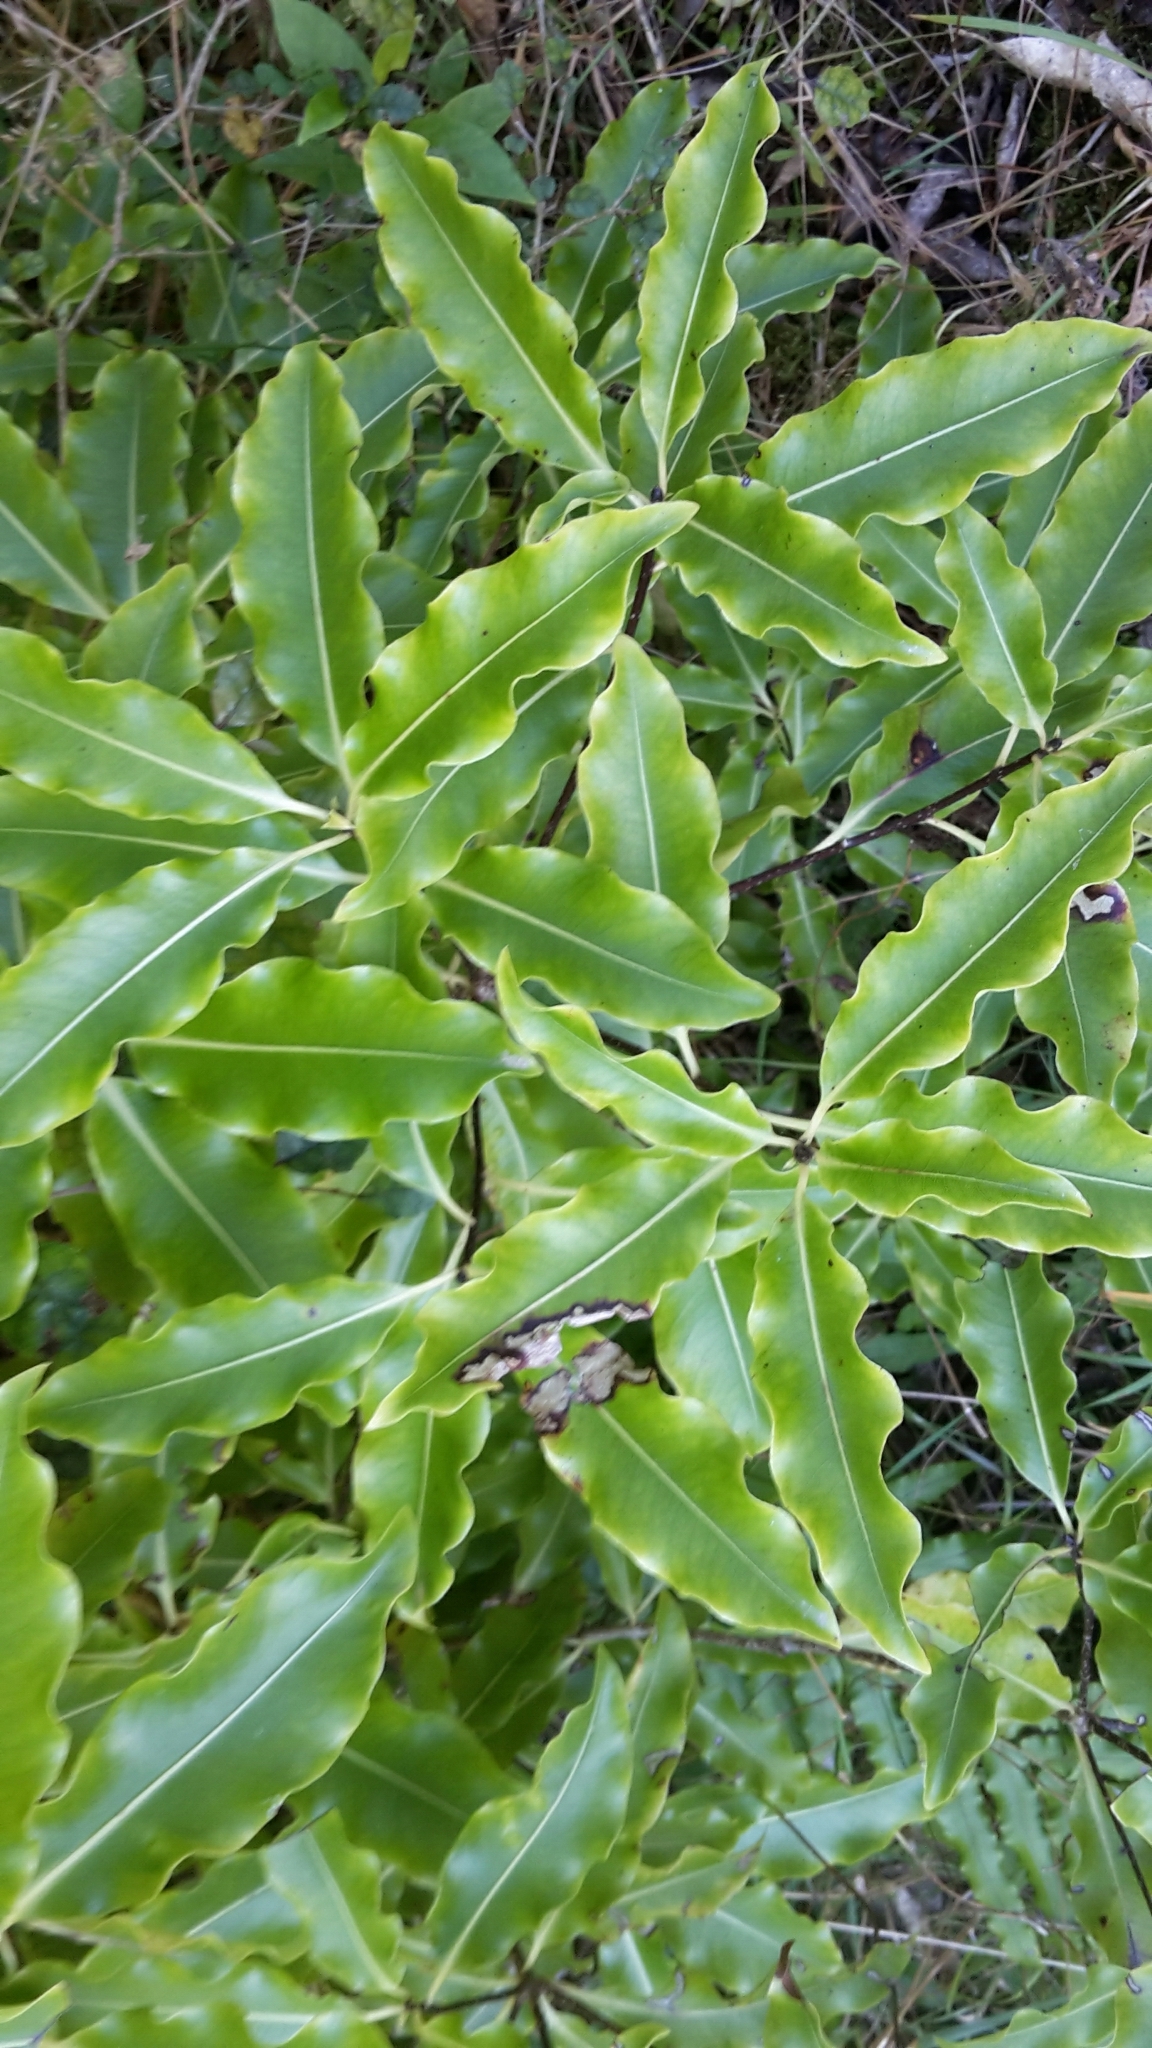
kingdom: Plantae
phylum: Tracheophyta
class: Magnoliopsida
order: Apiales
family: Pittosporaceae
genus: Pittosporum
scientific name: Pittosporum eugenioides
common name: Lemonwood
